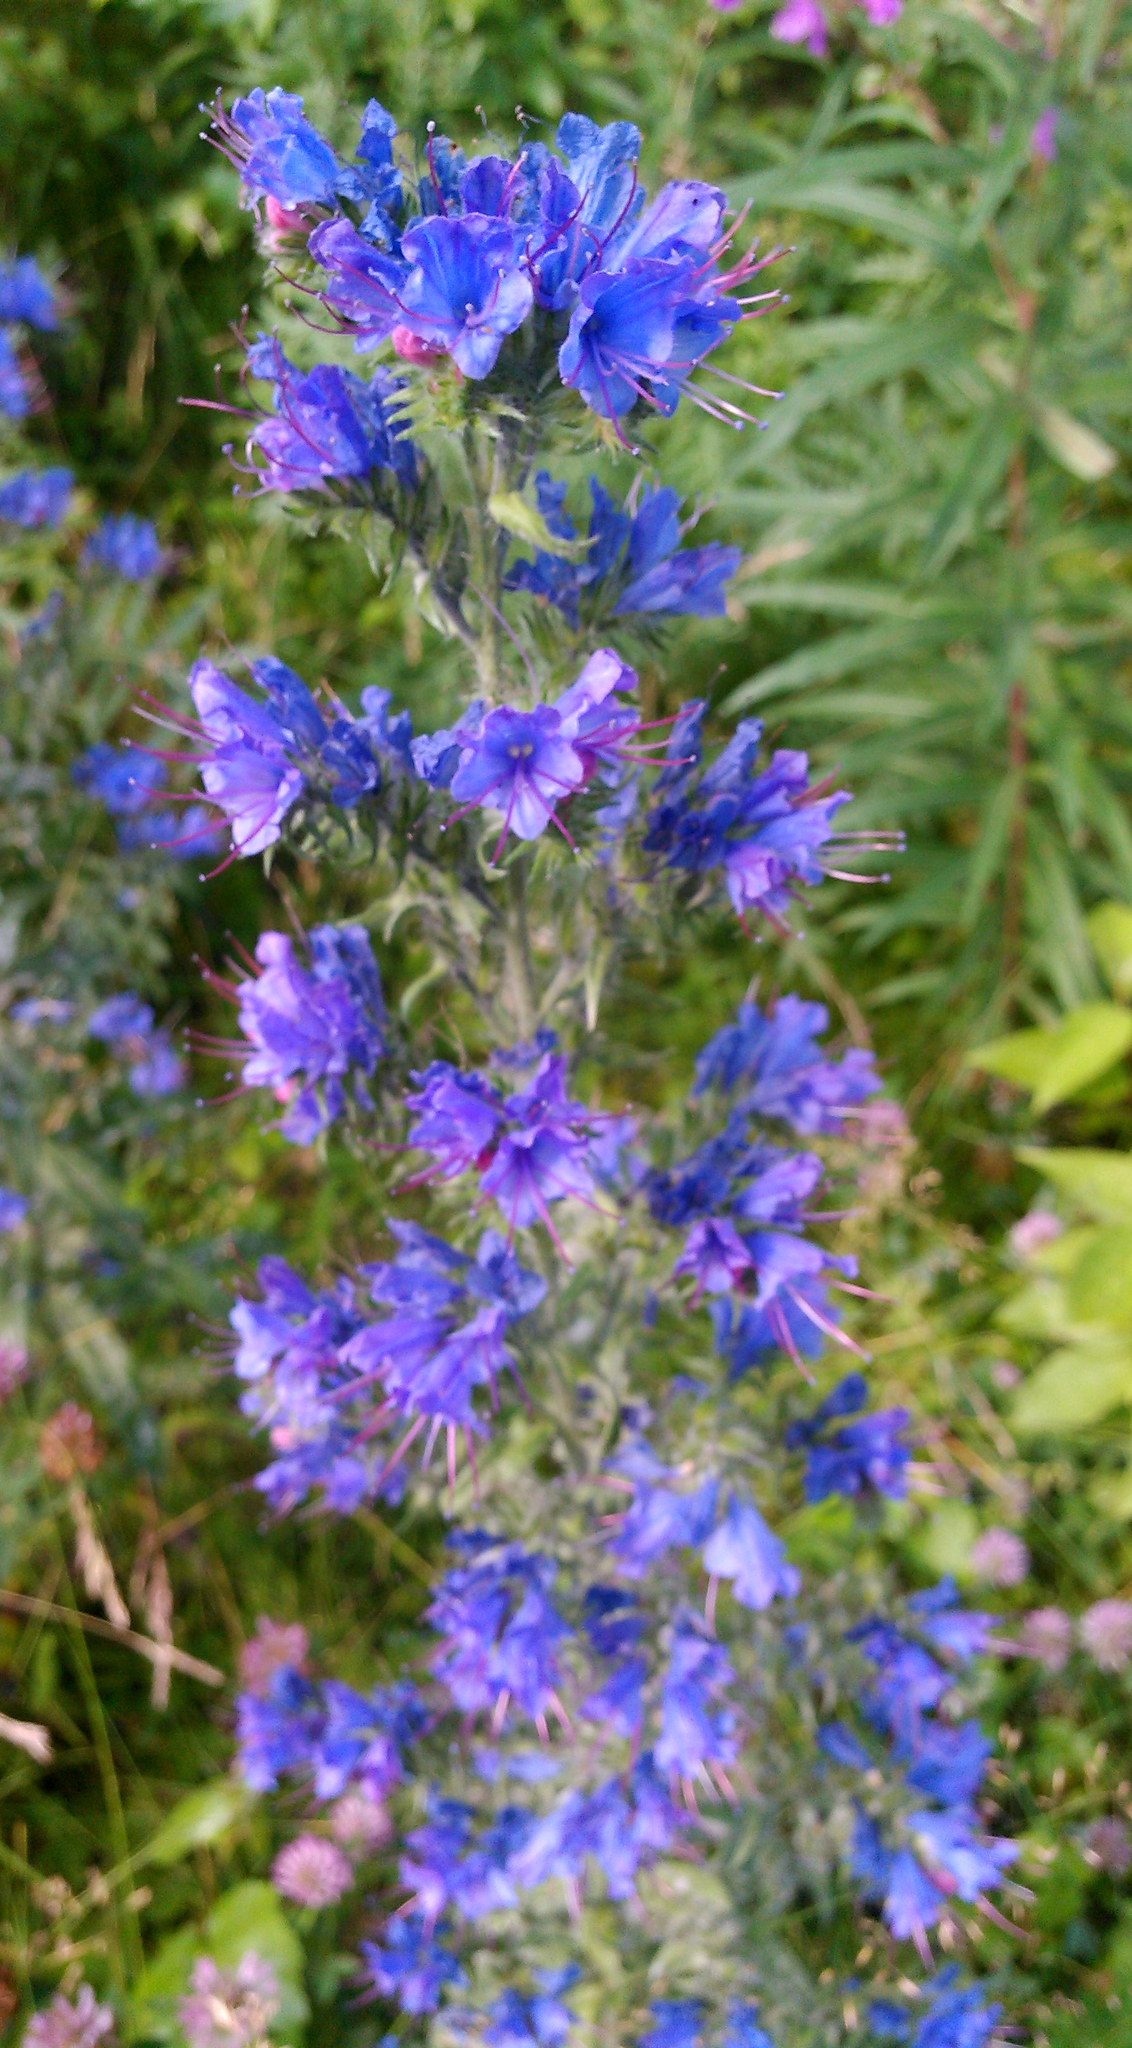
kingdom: Plantae
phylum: Tracheophyta
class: Magnoliopsida
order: Boraginales
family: Boraginaceae
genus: Echium
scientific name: Echium vulgare
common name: Common viper's bugloss
